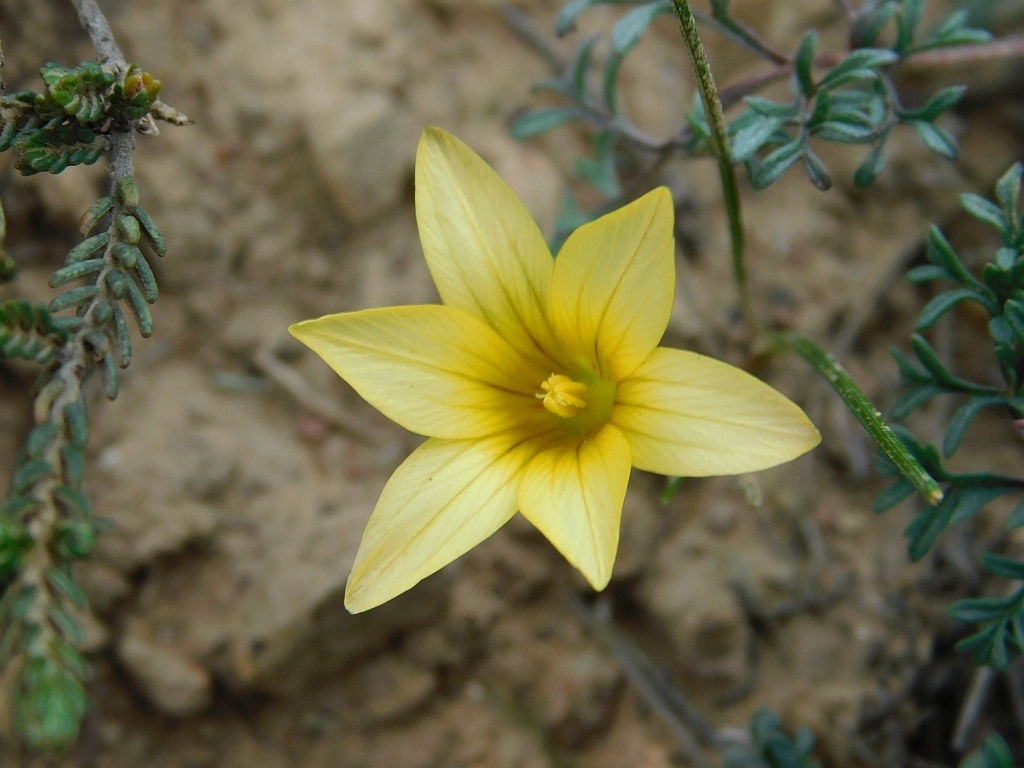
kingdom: Plantae
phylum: Tracheophyta
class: Liliopsida
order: Asparagales
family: Iridaceae
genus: Romulea
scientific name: Romulea flava
